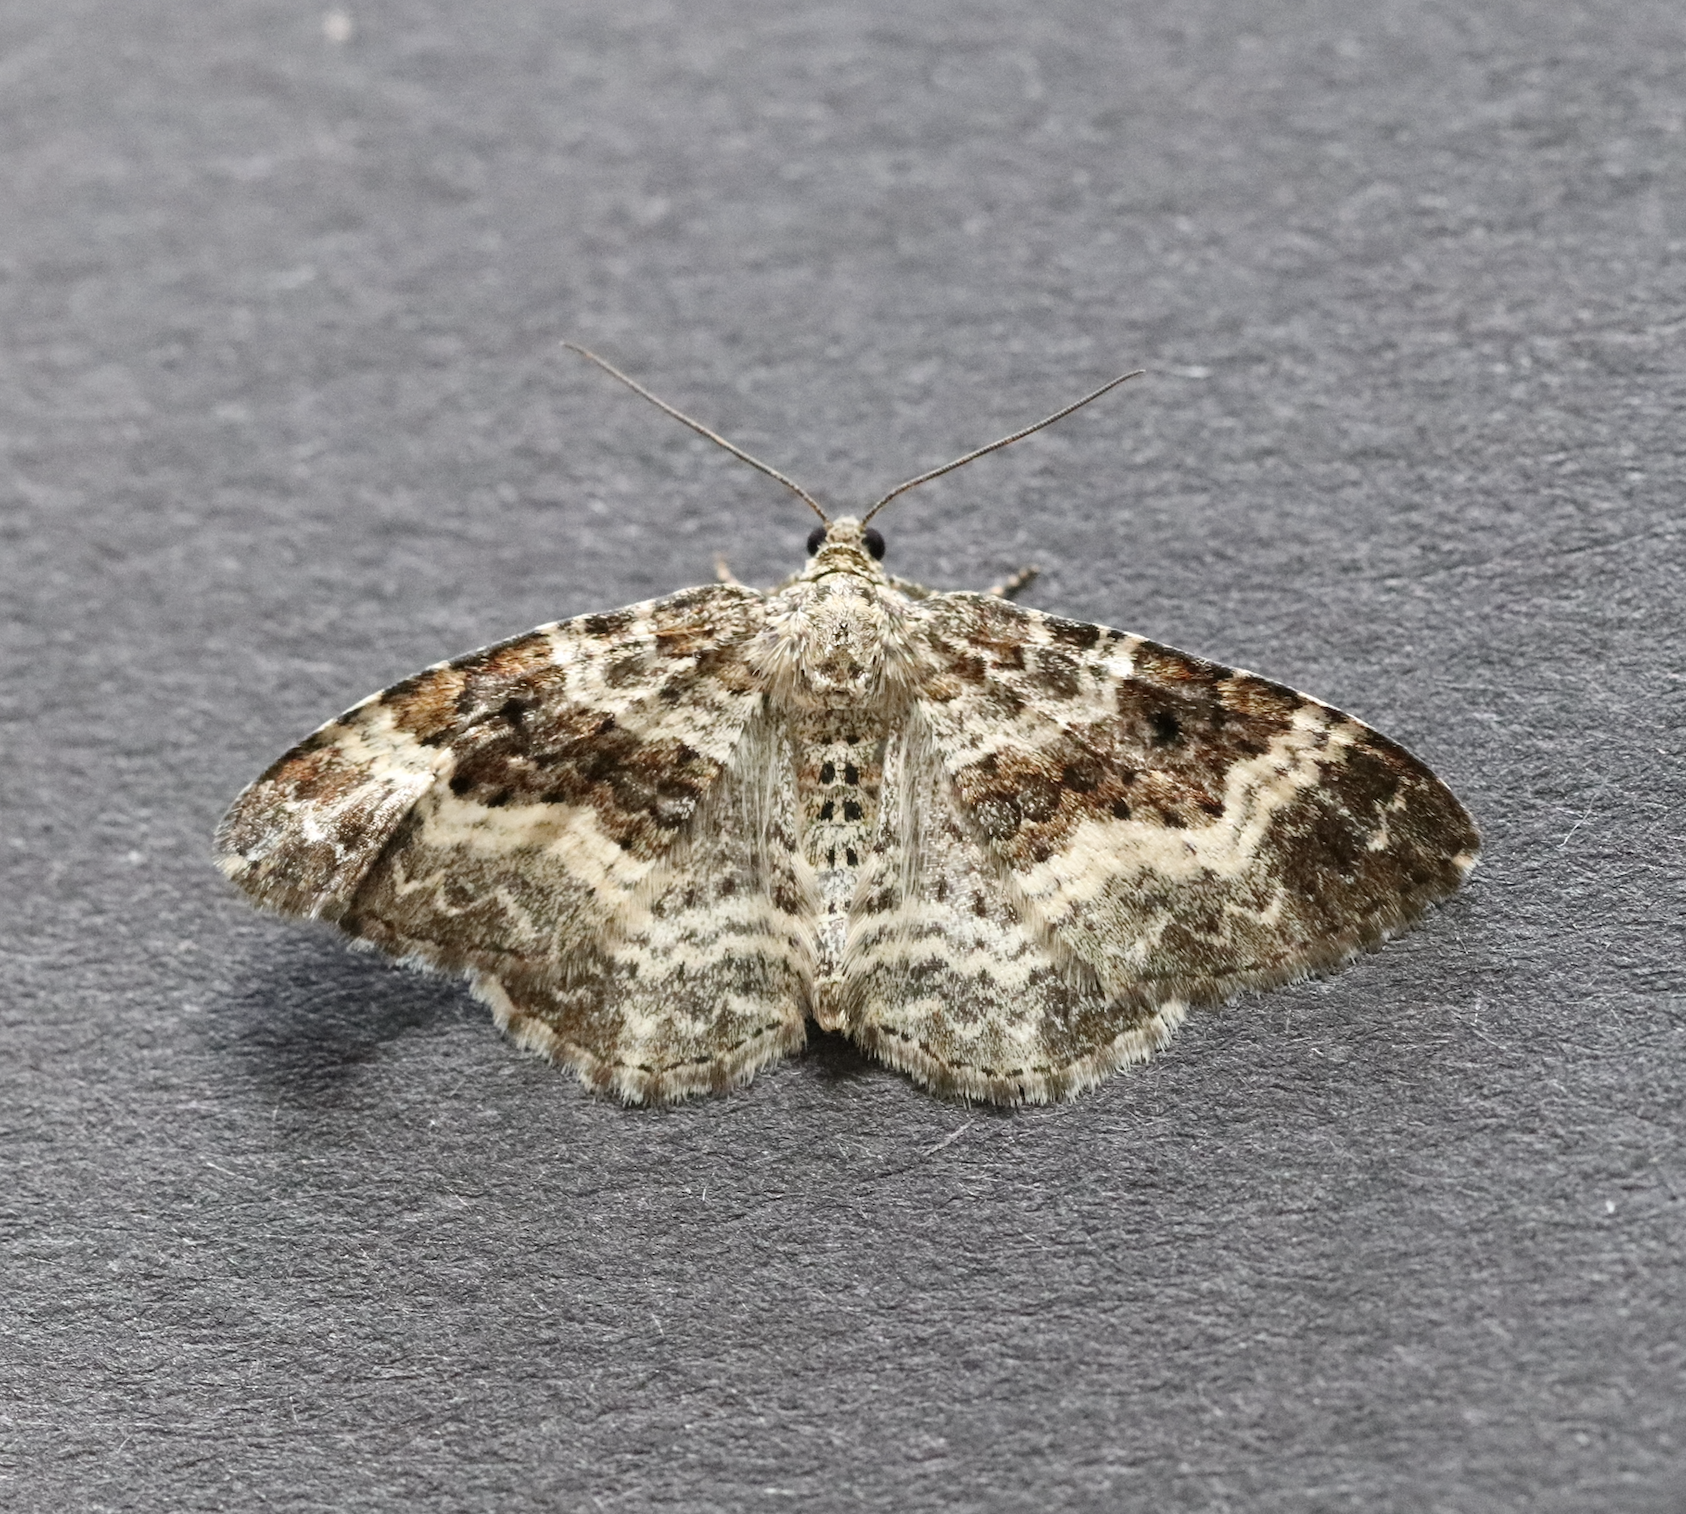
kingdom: Animalia
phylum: Arthropoda
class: Insecta
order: Lepidoptera
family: Geometridae
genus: Epirrhoe
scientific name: Epirrhoe alternata
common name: Common carpet
